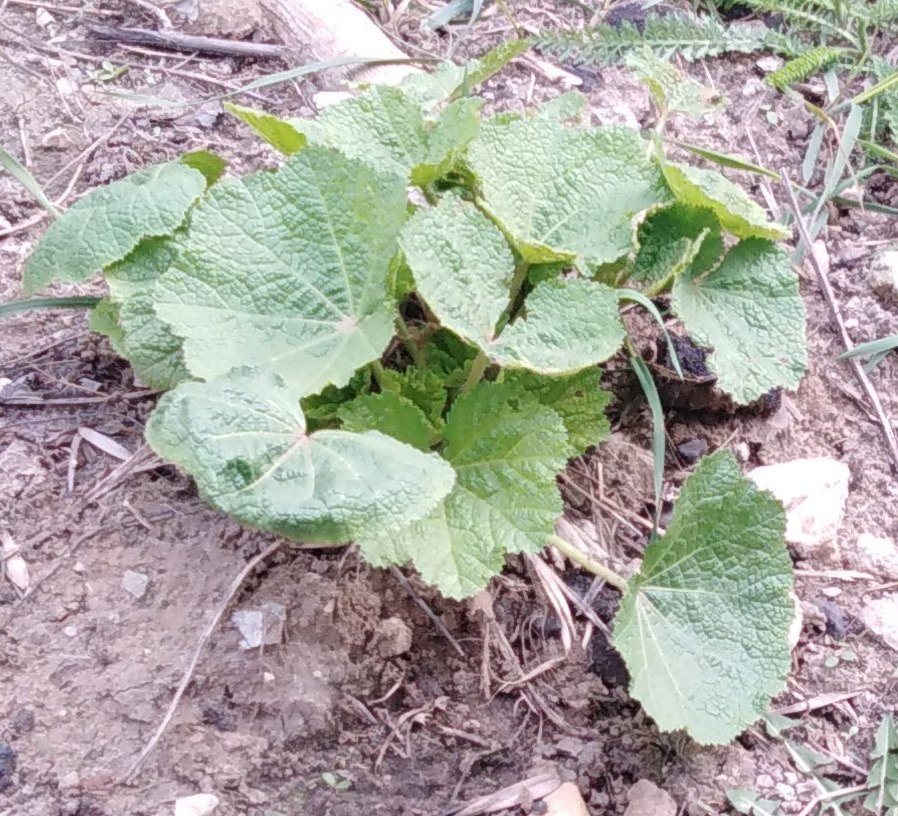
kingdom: Plantae
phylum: Tracheophyta
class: Magnoliopsida
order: Malvales
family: Malvaceae
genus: Alcea
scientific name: Alcea rosea
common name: Hollyhock
